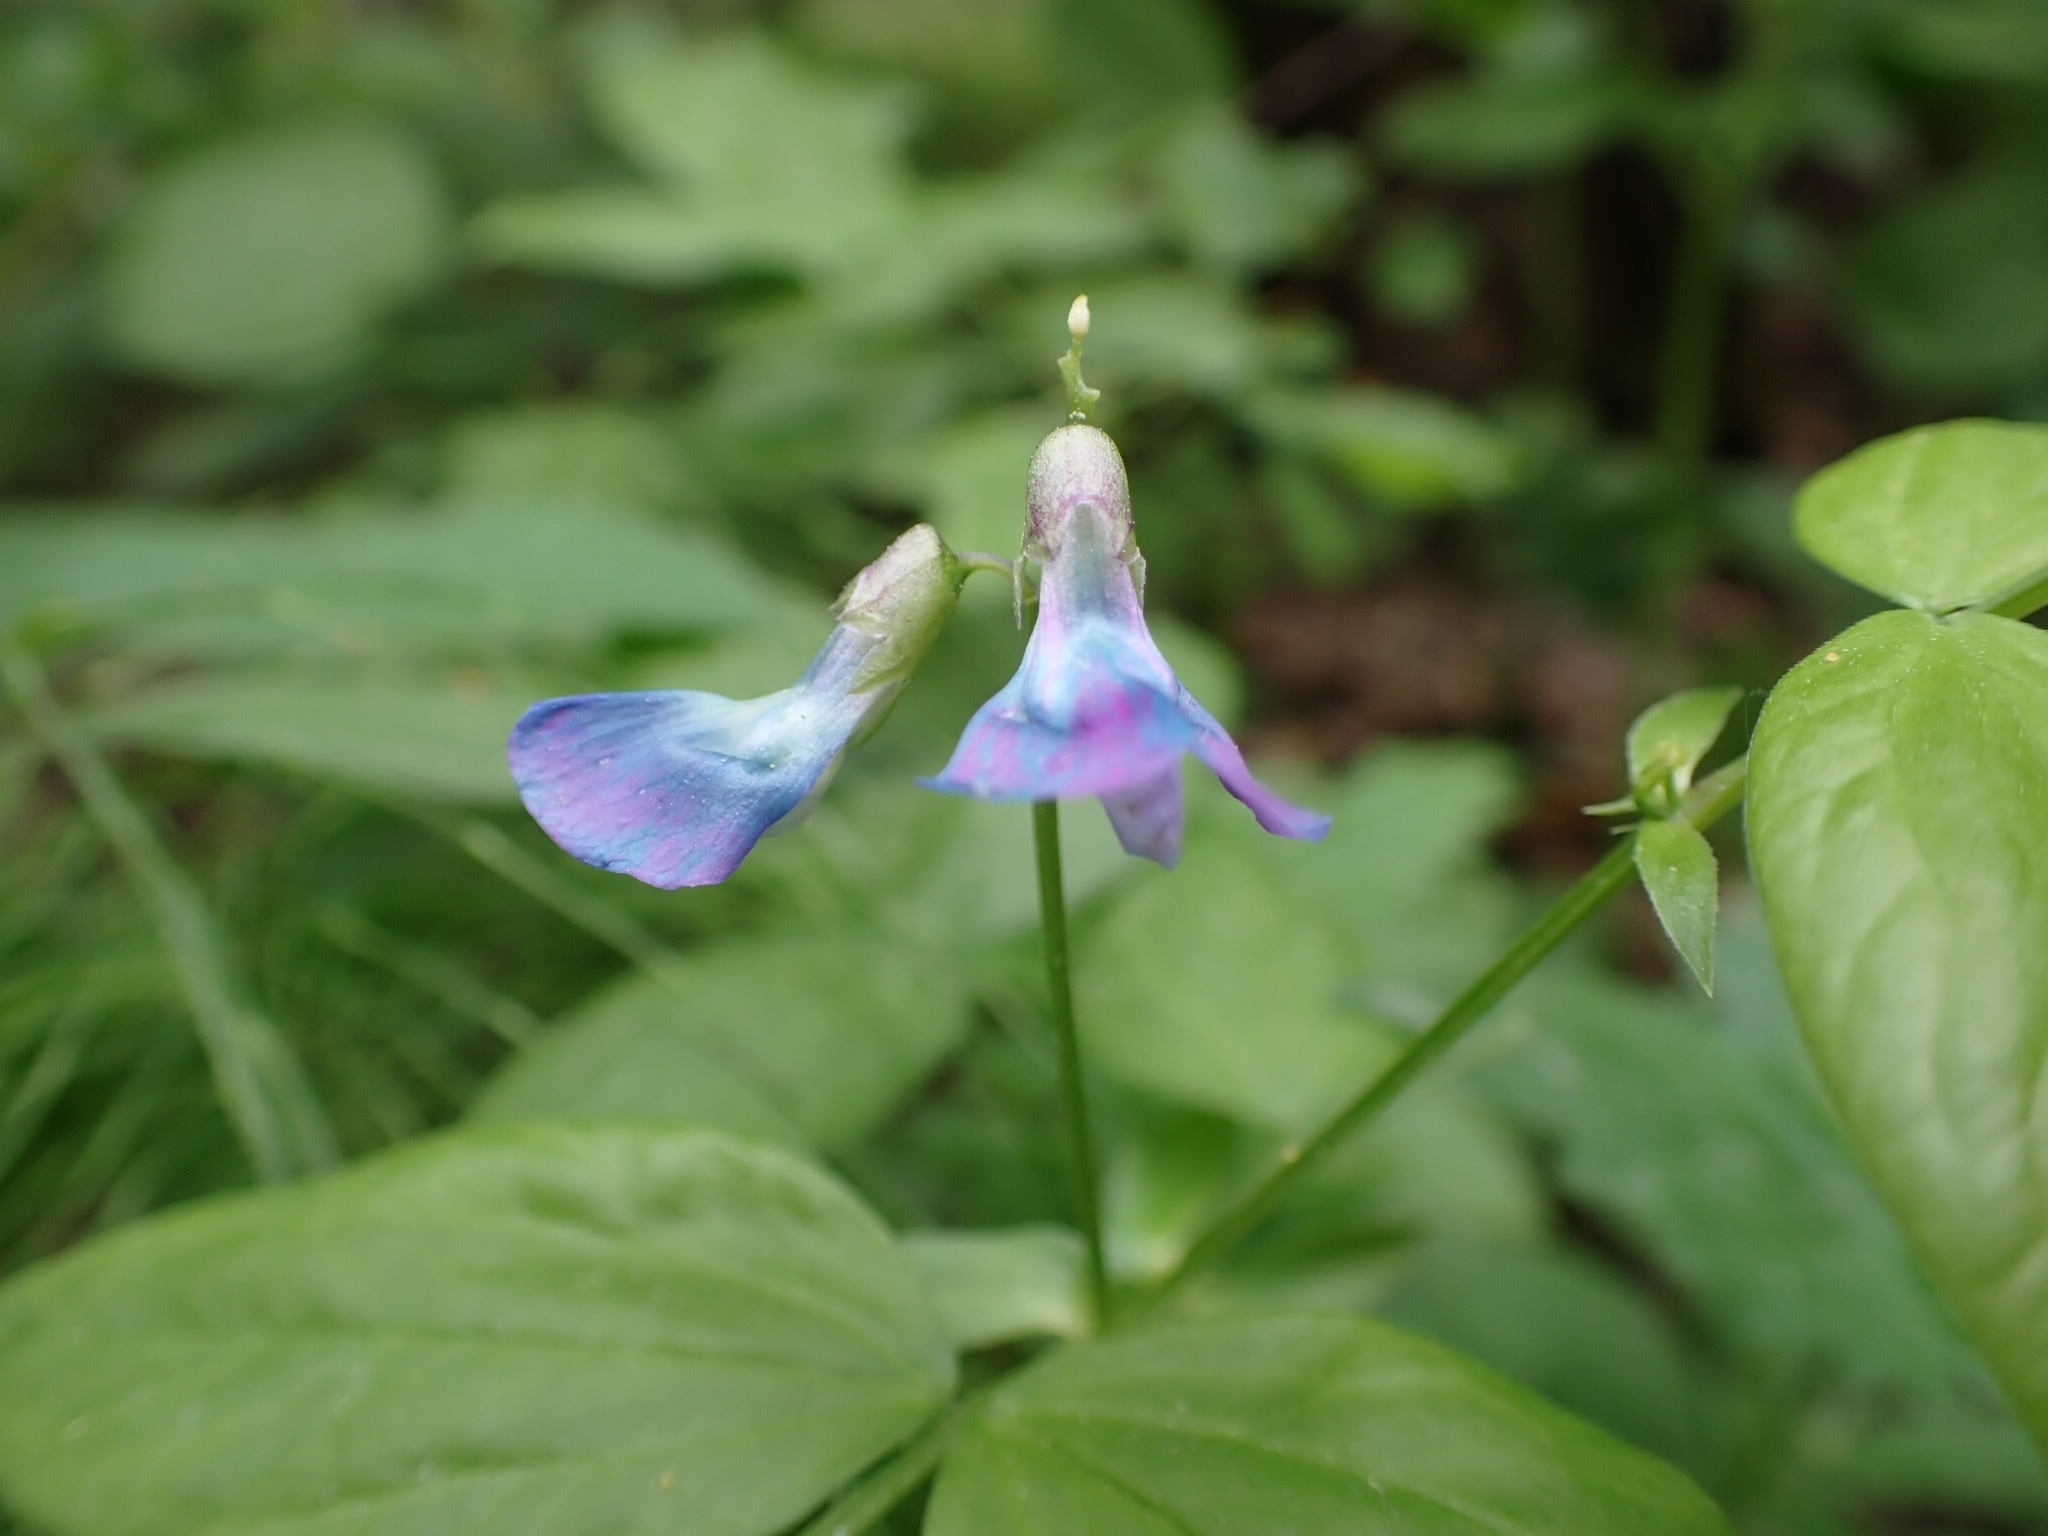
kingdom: Plantae
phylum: Tracheophyta
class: Magnoliopsida
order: Fabales
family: Fabaceae
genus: Lathyrus
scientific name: Lathyrus vernus
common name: Spring pea
